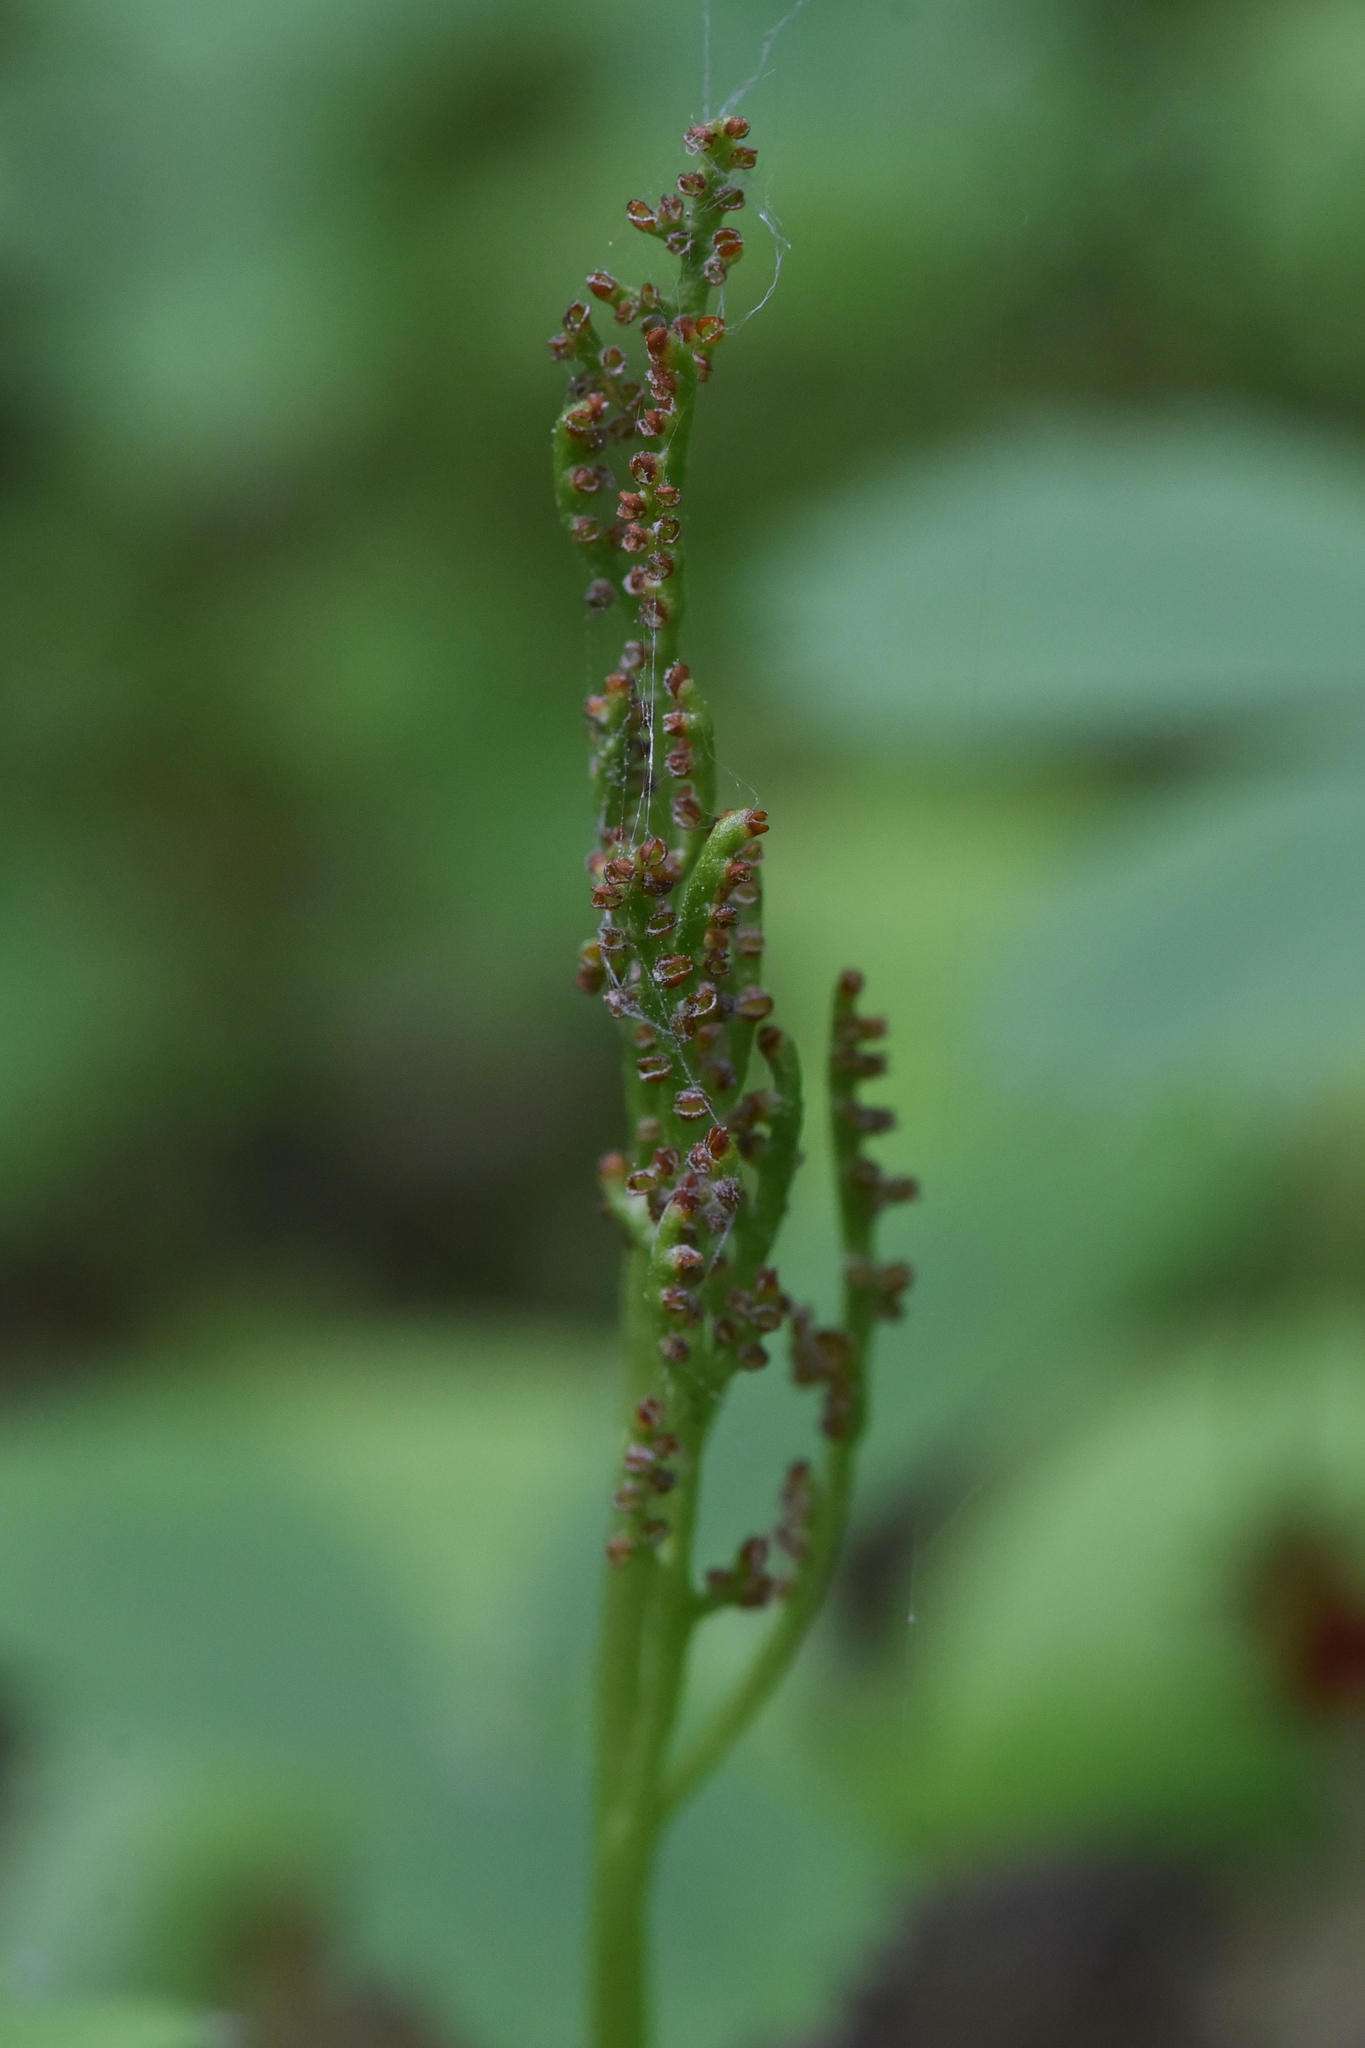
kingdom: Plantae
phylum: Tracheophyta
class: Polypodiopsida
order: Ophioglossales
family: Ophioglossaceae
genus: Botrychium
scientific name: Botrychium pinnatum
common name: Northwestern moonwort
